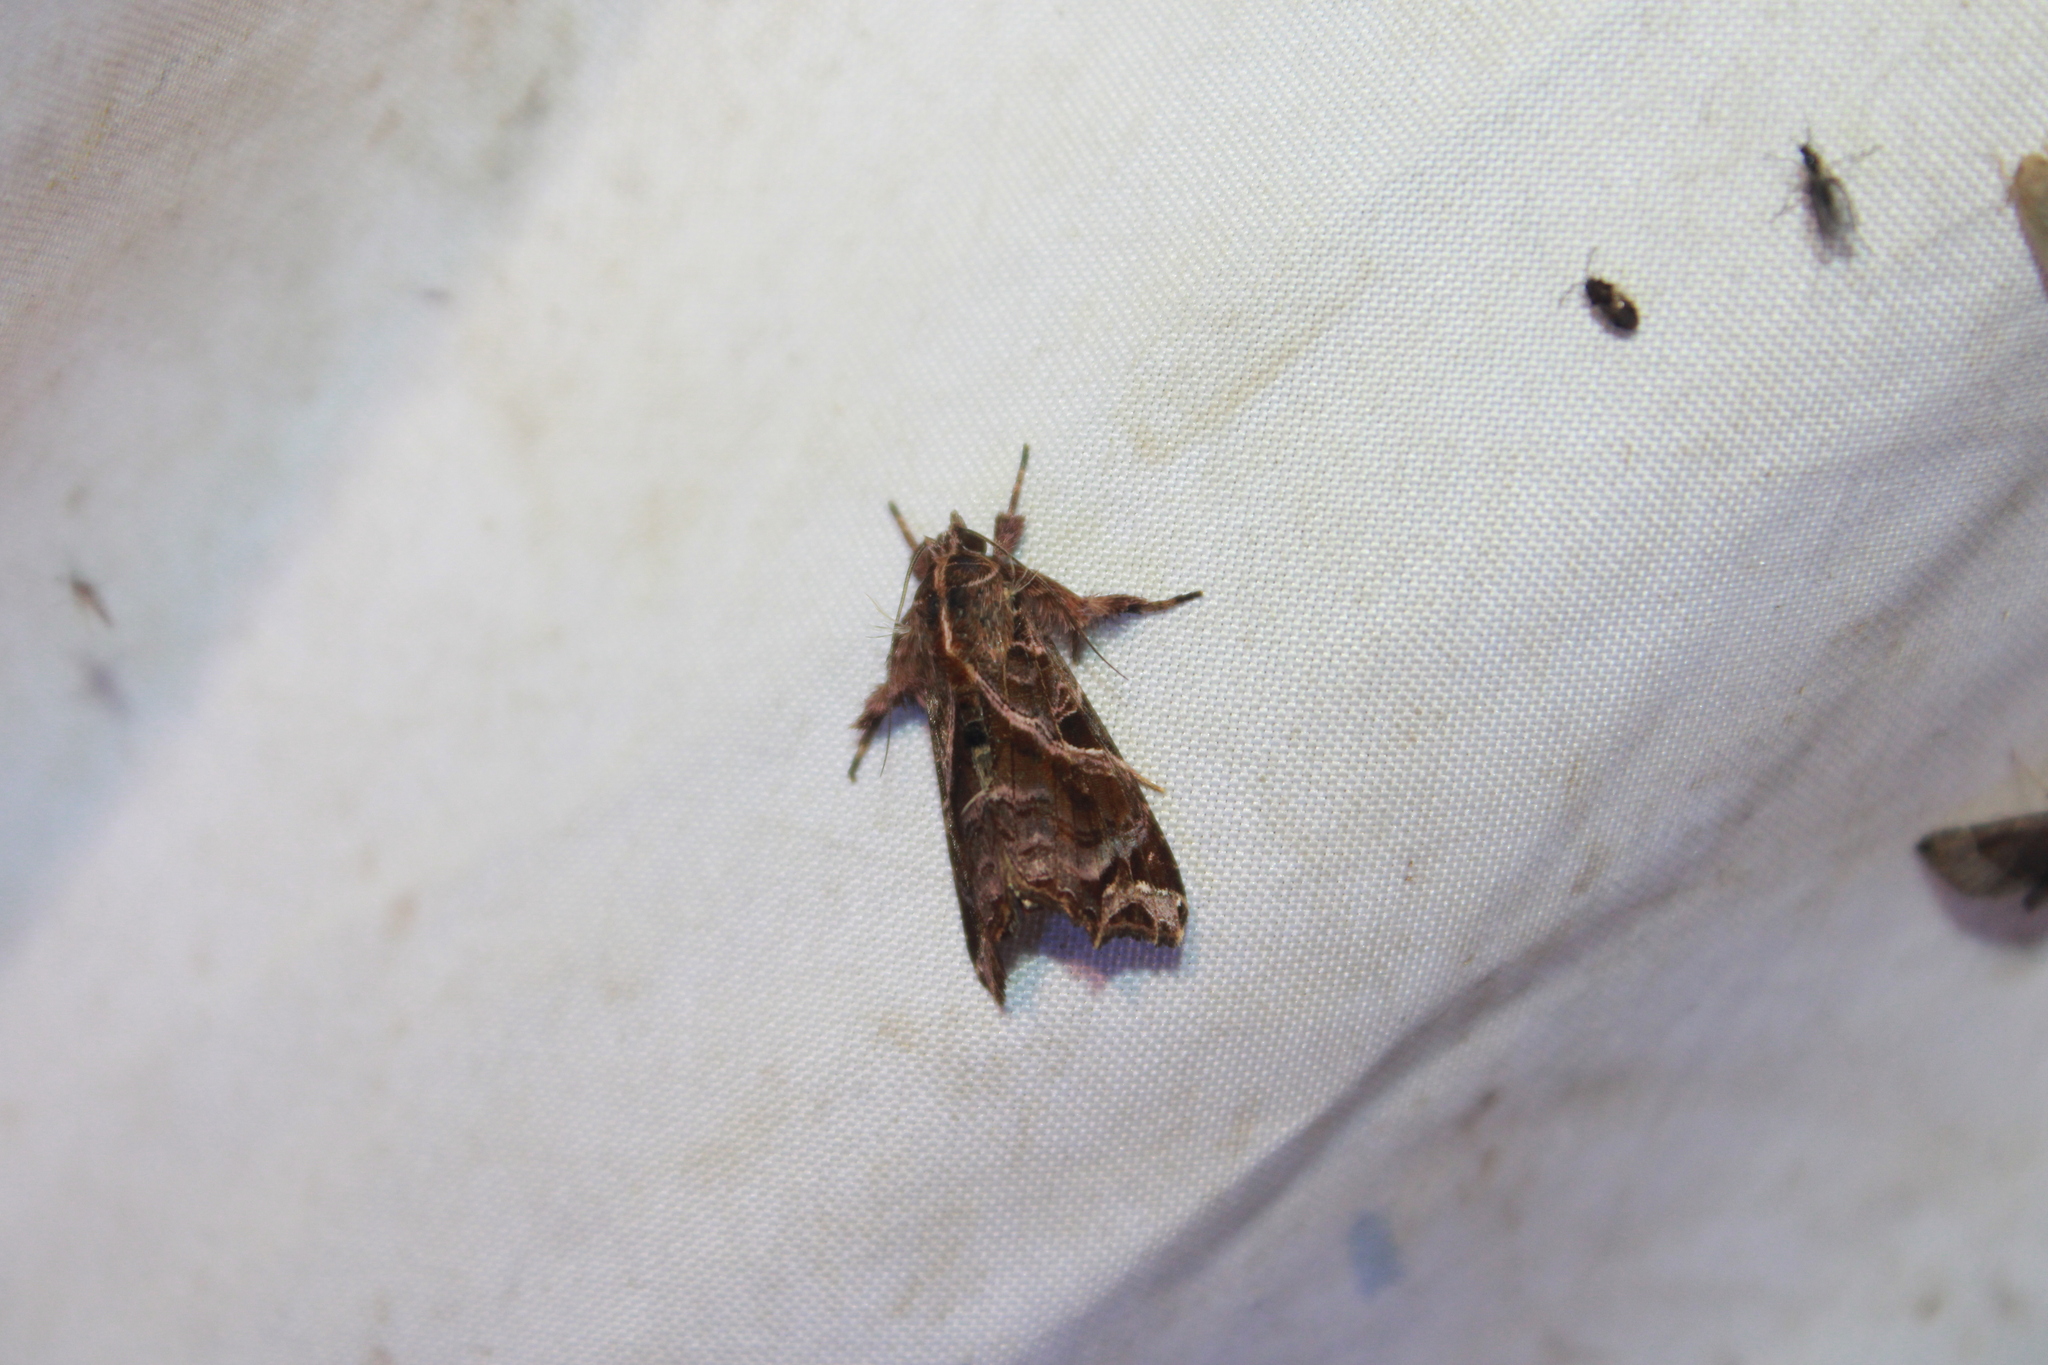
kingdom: Animalia
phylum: Arthropoda
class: Insecta
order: Lepidoptera
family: Noctuidae
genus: Callopistria
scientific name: Callopistria floridensis
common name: Florida fern moth
